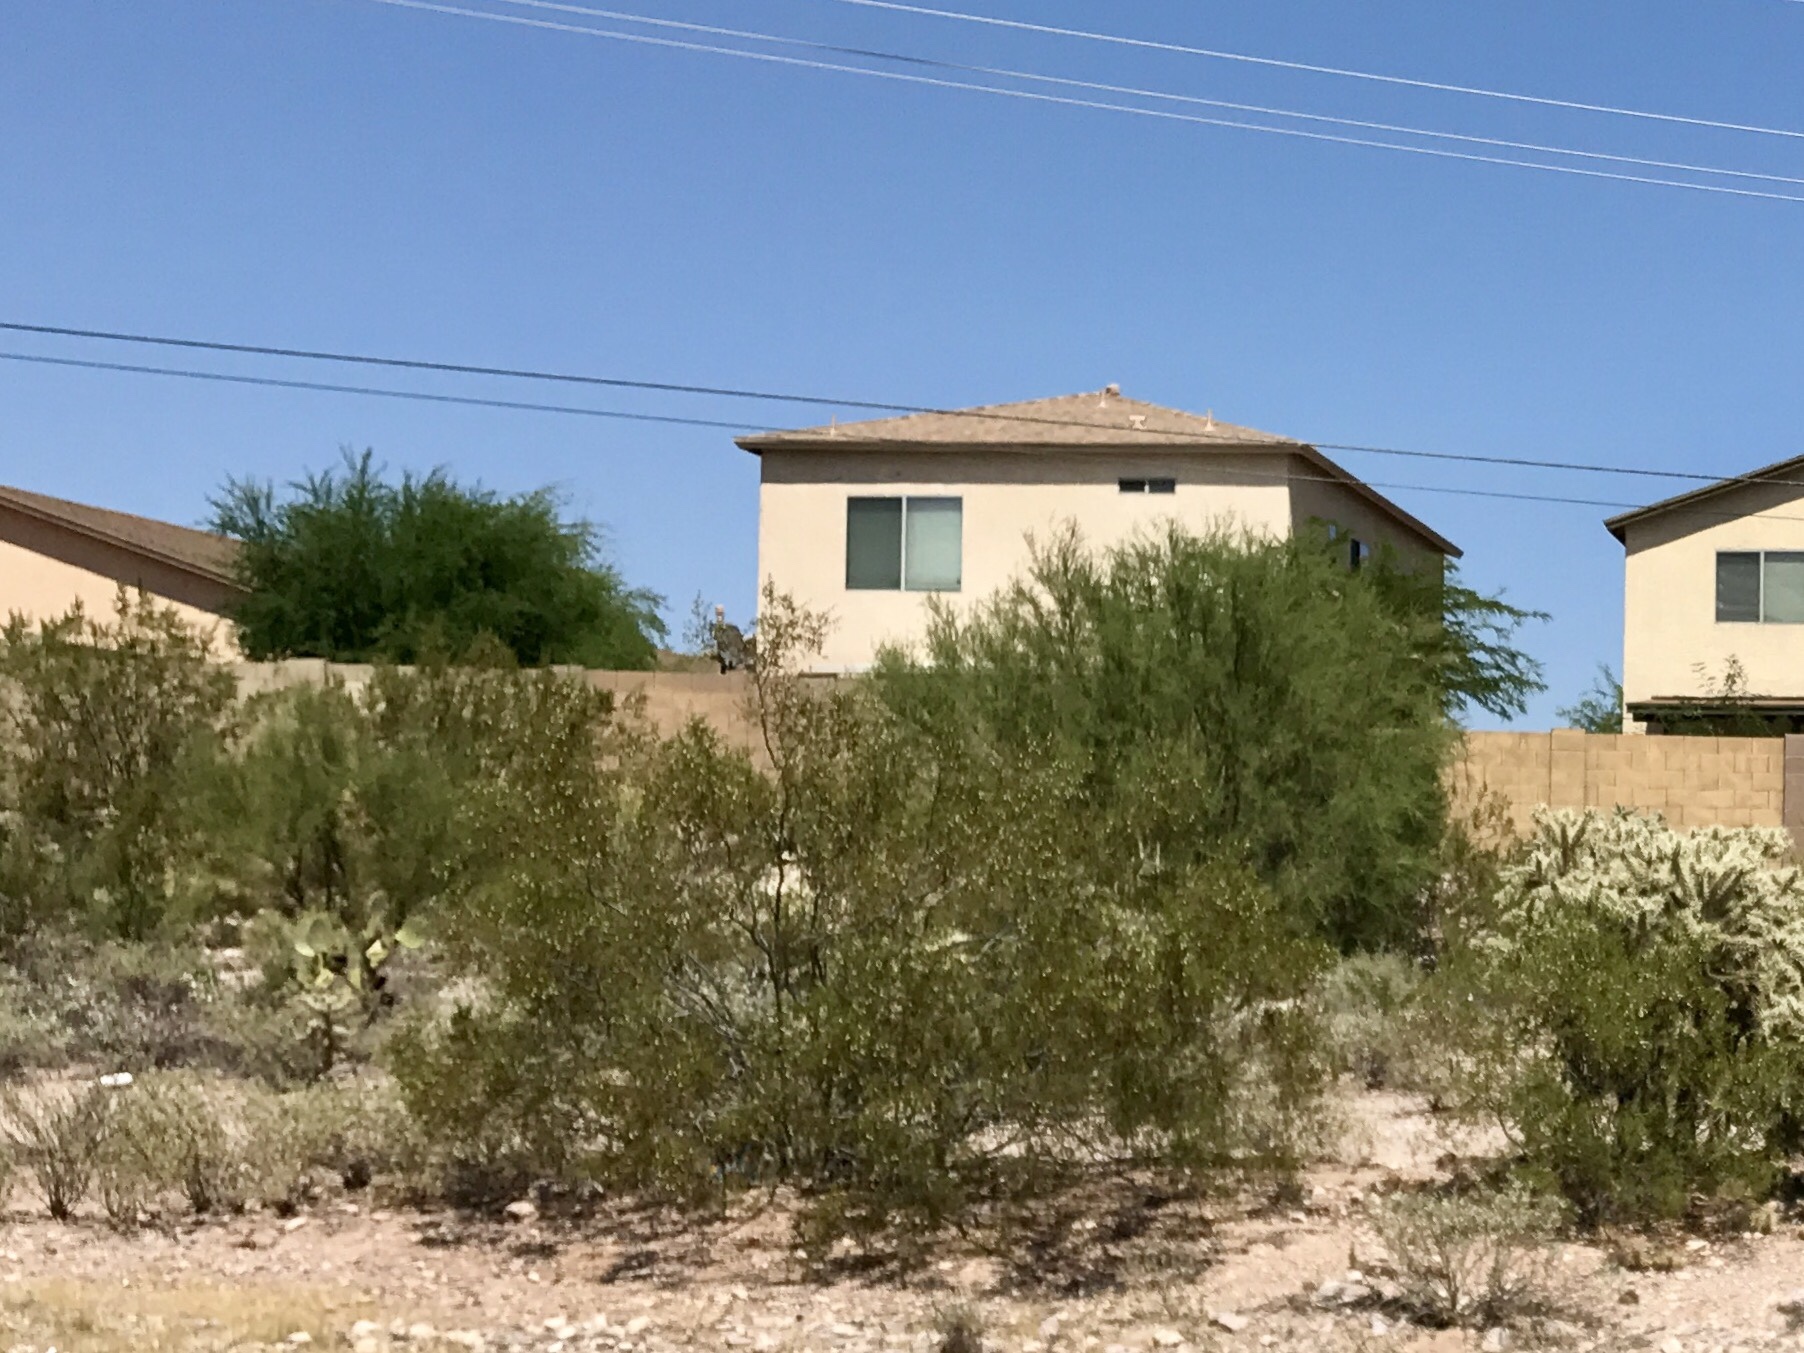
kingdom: Plantae
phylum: Tracheophyta
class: Magnoliopsida
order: Zygophyllales
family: Zygophyllaceae
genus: Larrea
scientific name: Larrea tridentata
